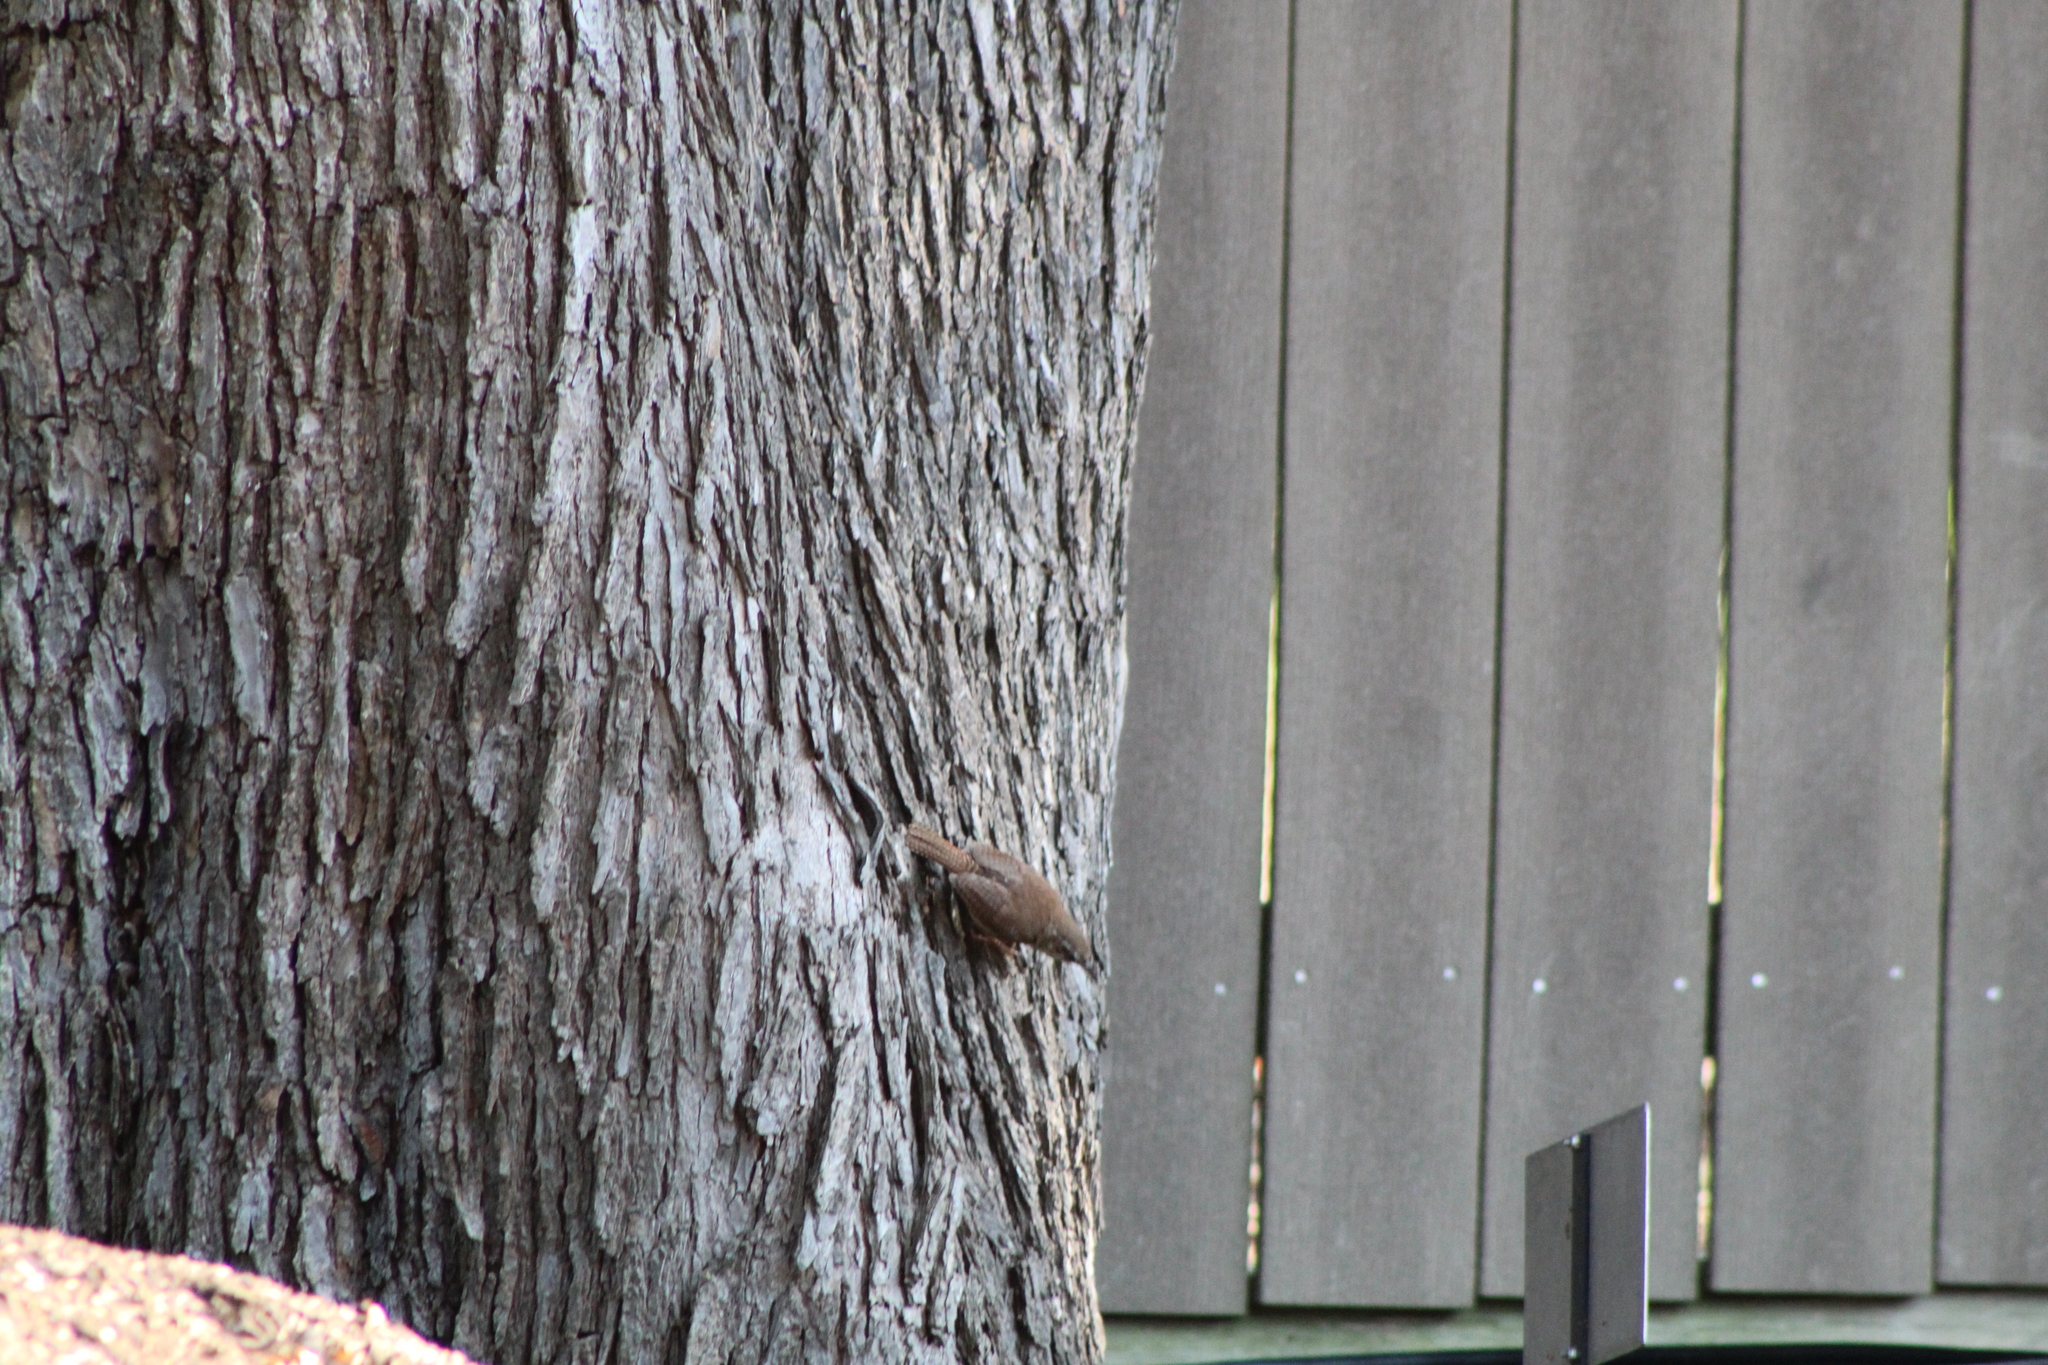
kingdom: Animalia
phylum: Chordata
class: Aves
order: Passeriformes
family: Troglodytidae
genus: Thryothorus
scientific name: Thryothorus ludovicianus
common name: Carolina wren
